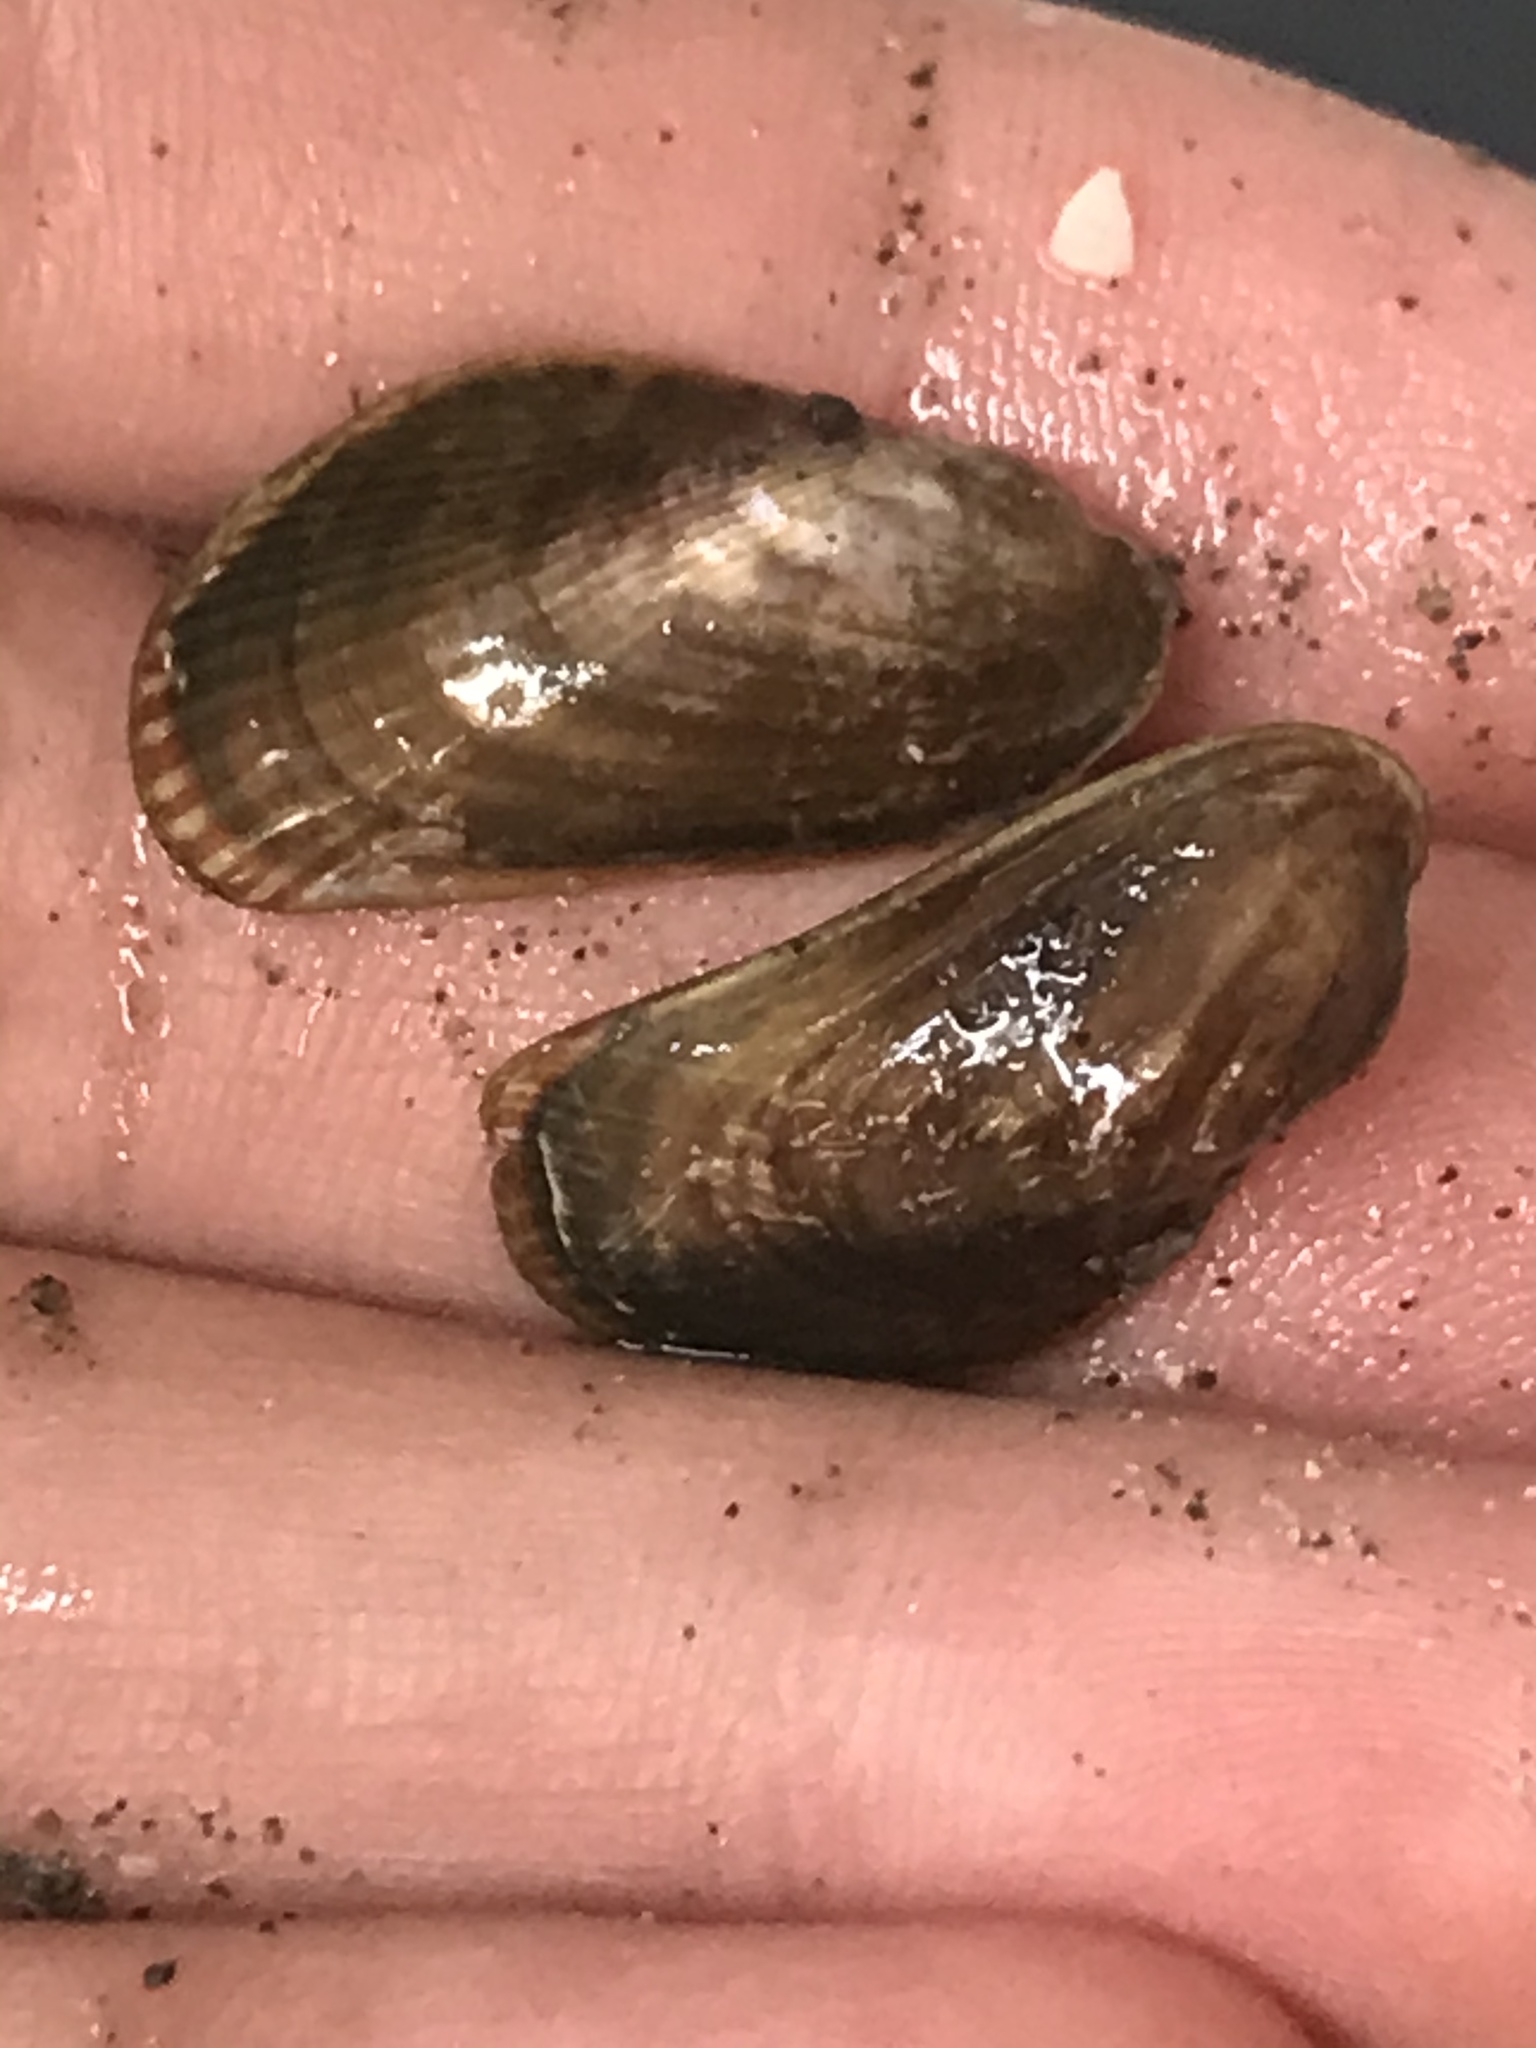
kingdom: Animalia
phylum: Mollusca
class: Bivalvia
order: Mytilida
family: Mytilidae
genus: Arcuatula
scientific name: Arcuatula senhousia
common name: Asian mussel
